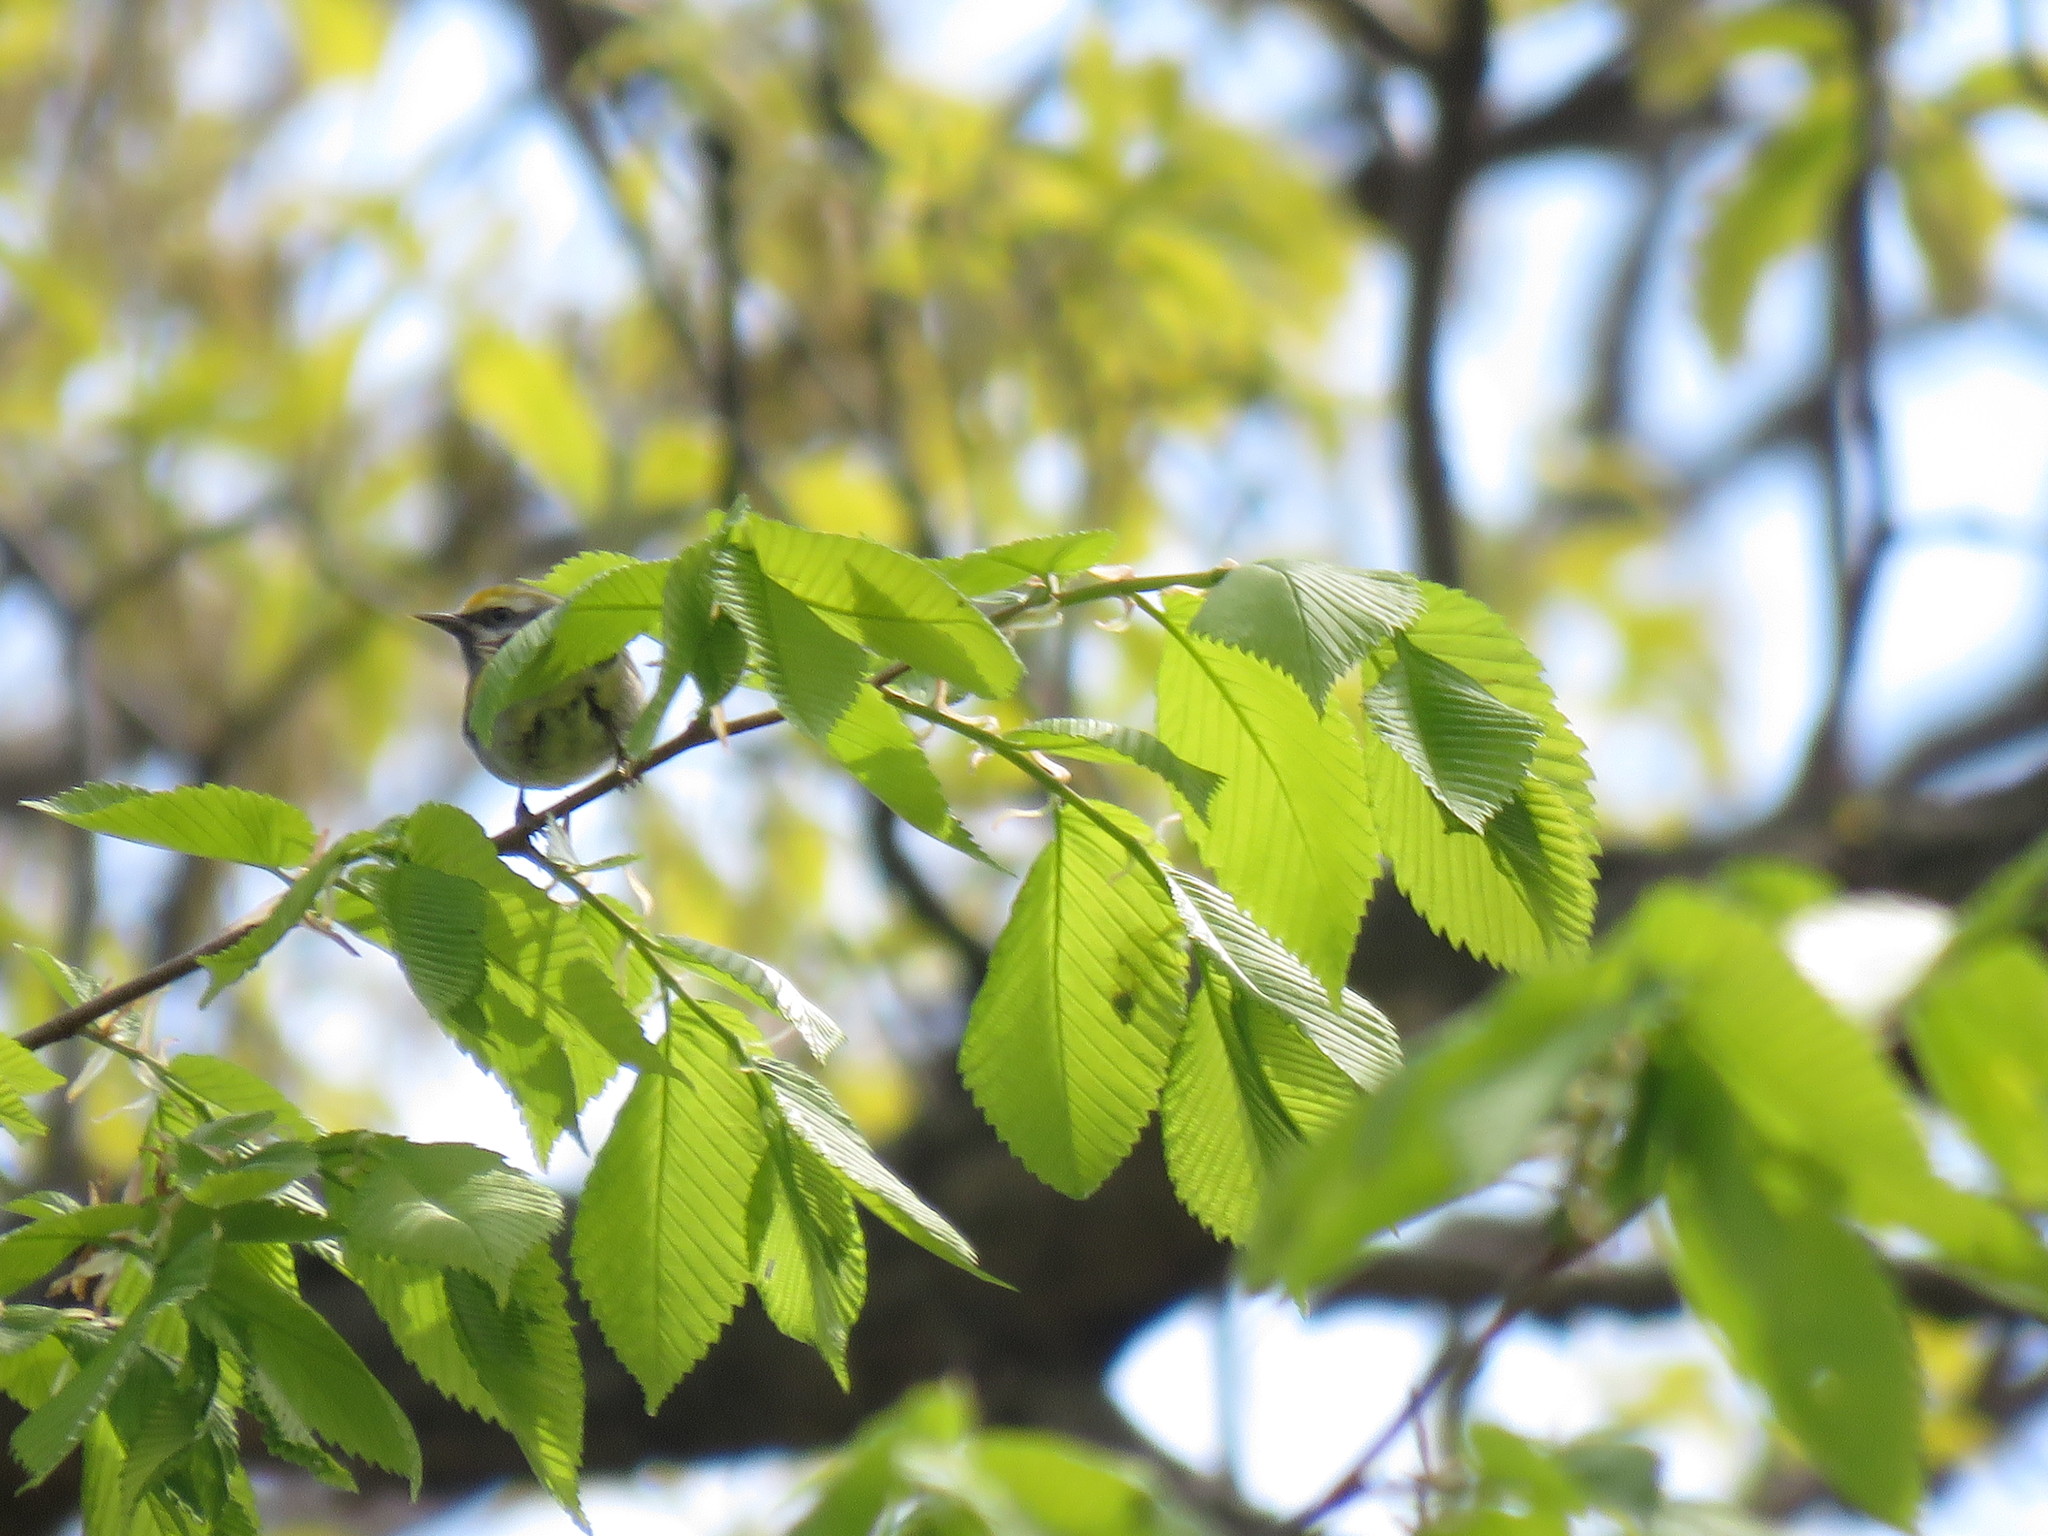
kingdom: Animalia
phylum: Chordata
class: Aves
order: Passeriformes
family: Parulidae
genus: Vermivora
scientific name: Vermivora chrysoptera
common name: Golden-winged warbler
